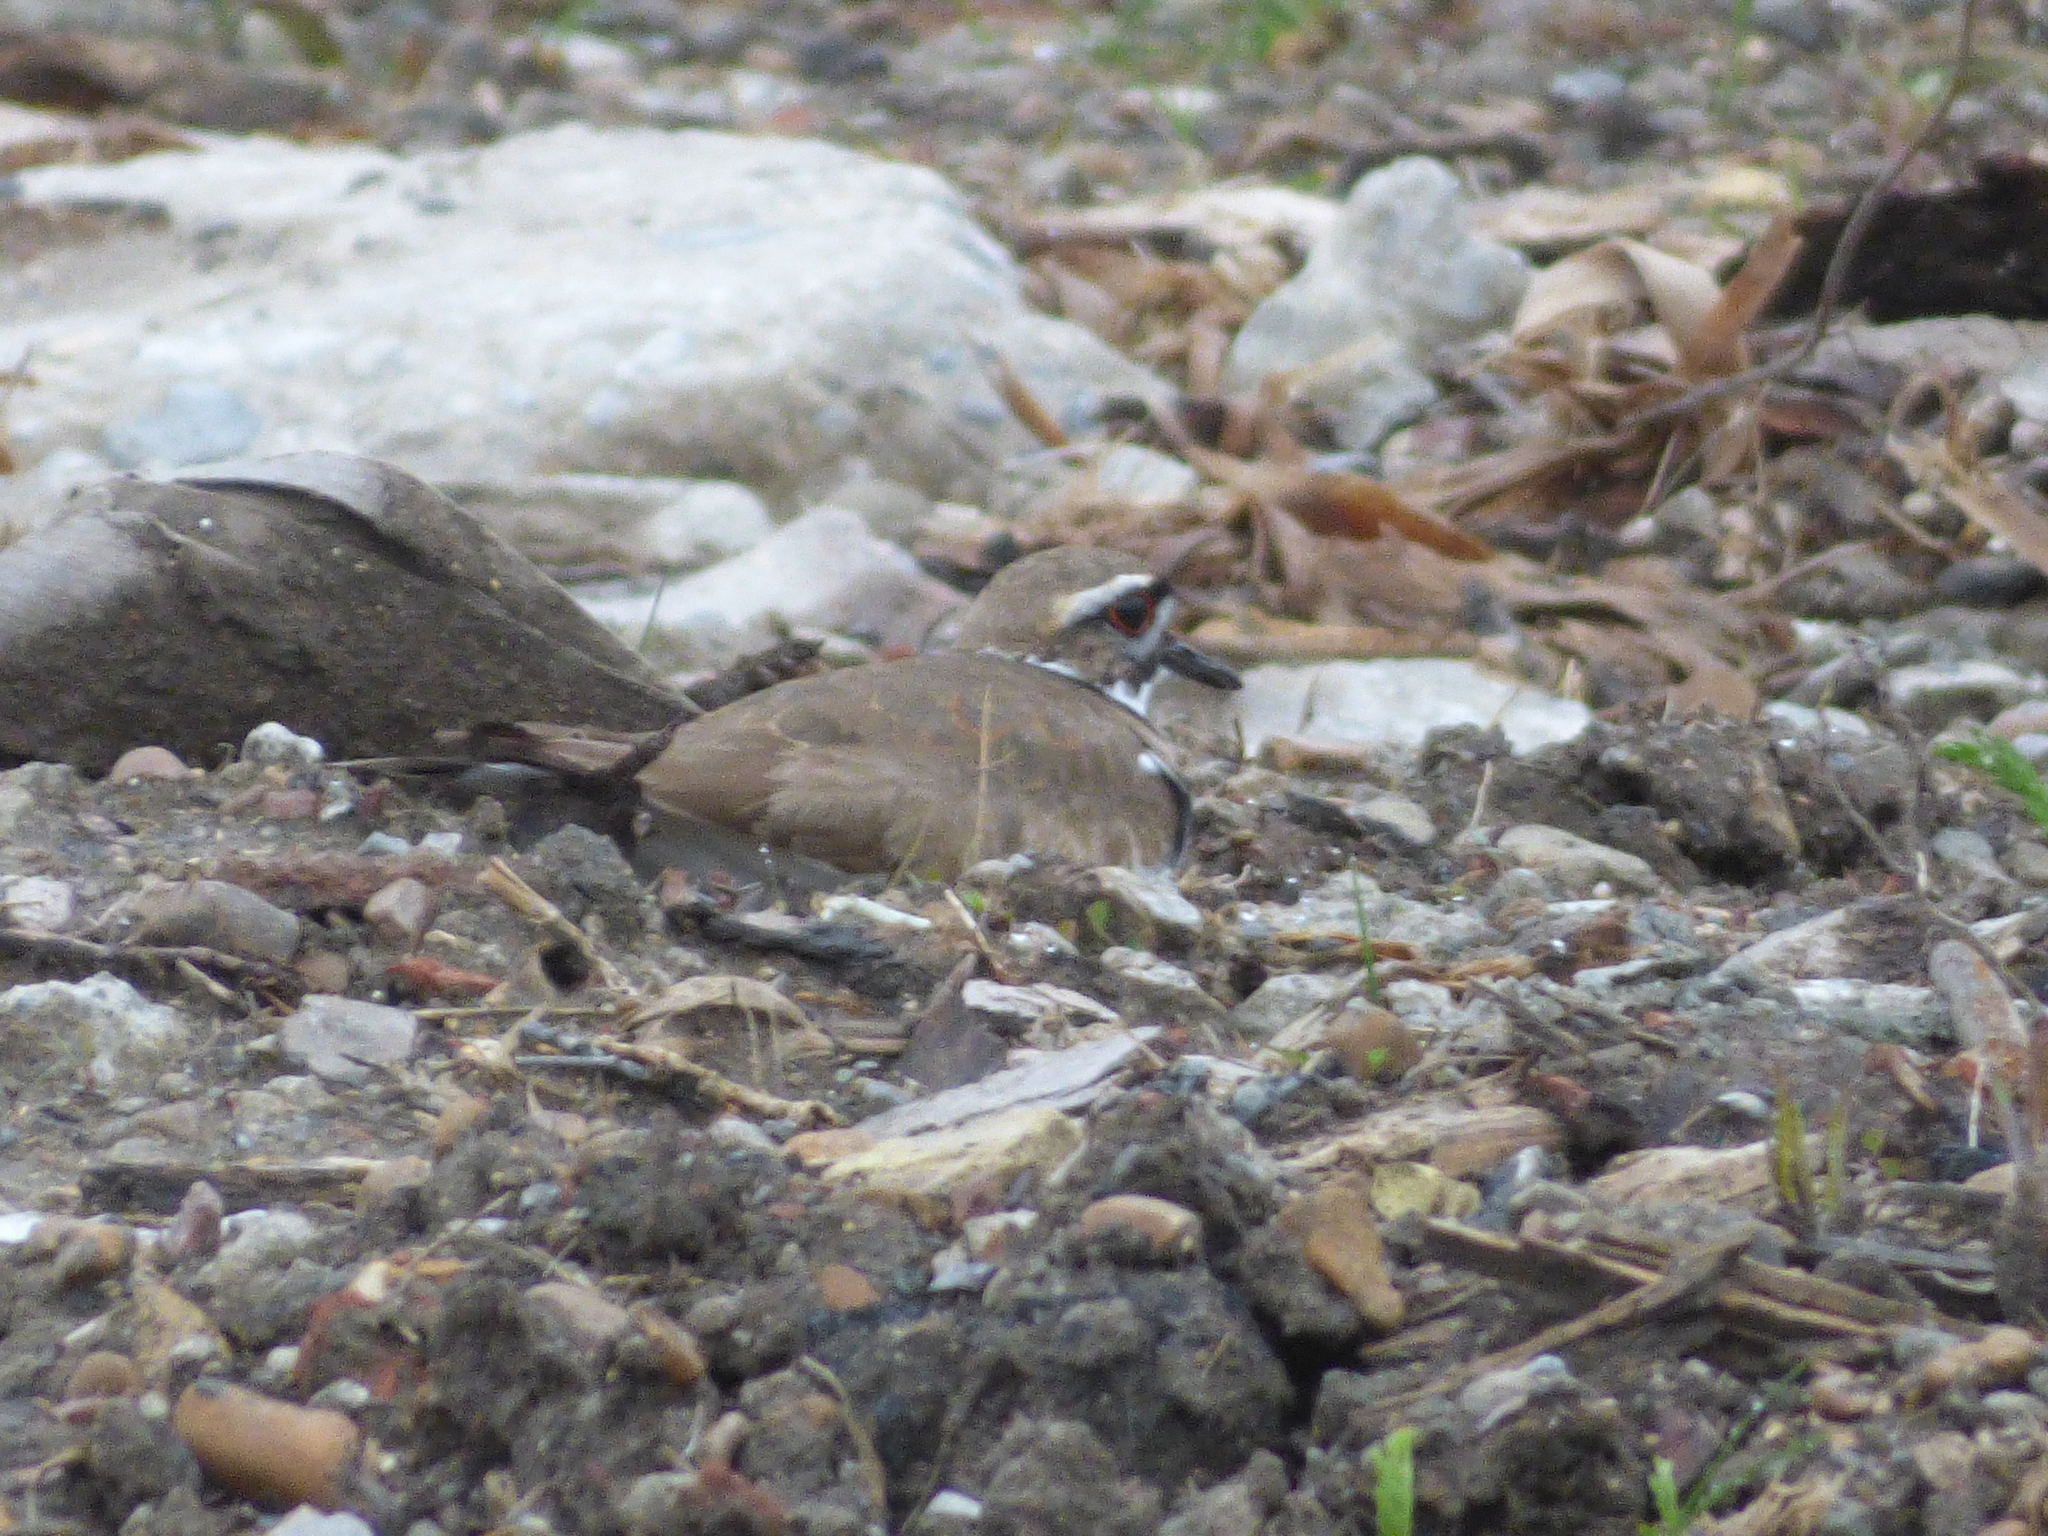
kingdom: Animalia
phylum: Chordata
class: Aves
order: Charadriiformes
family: Charadriidae
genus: Charadrius
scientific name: Charadrius vociferus
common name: Killdeer
